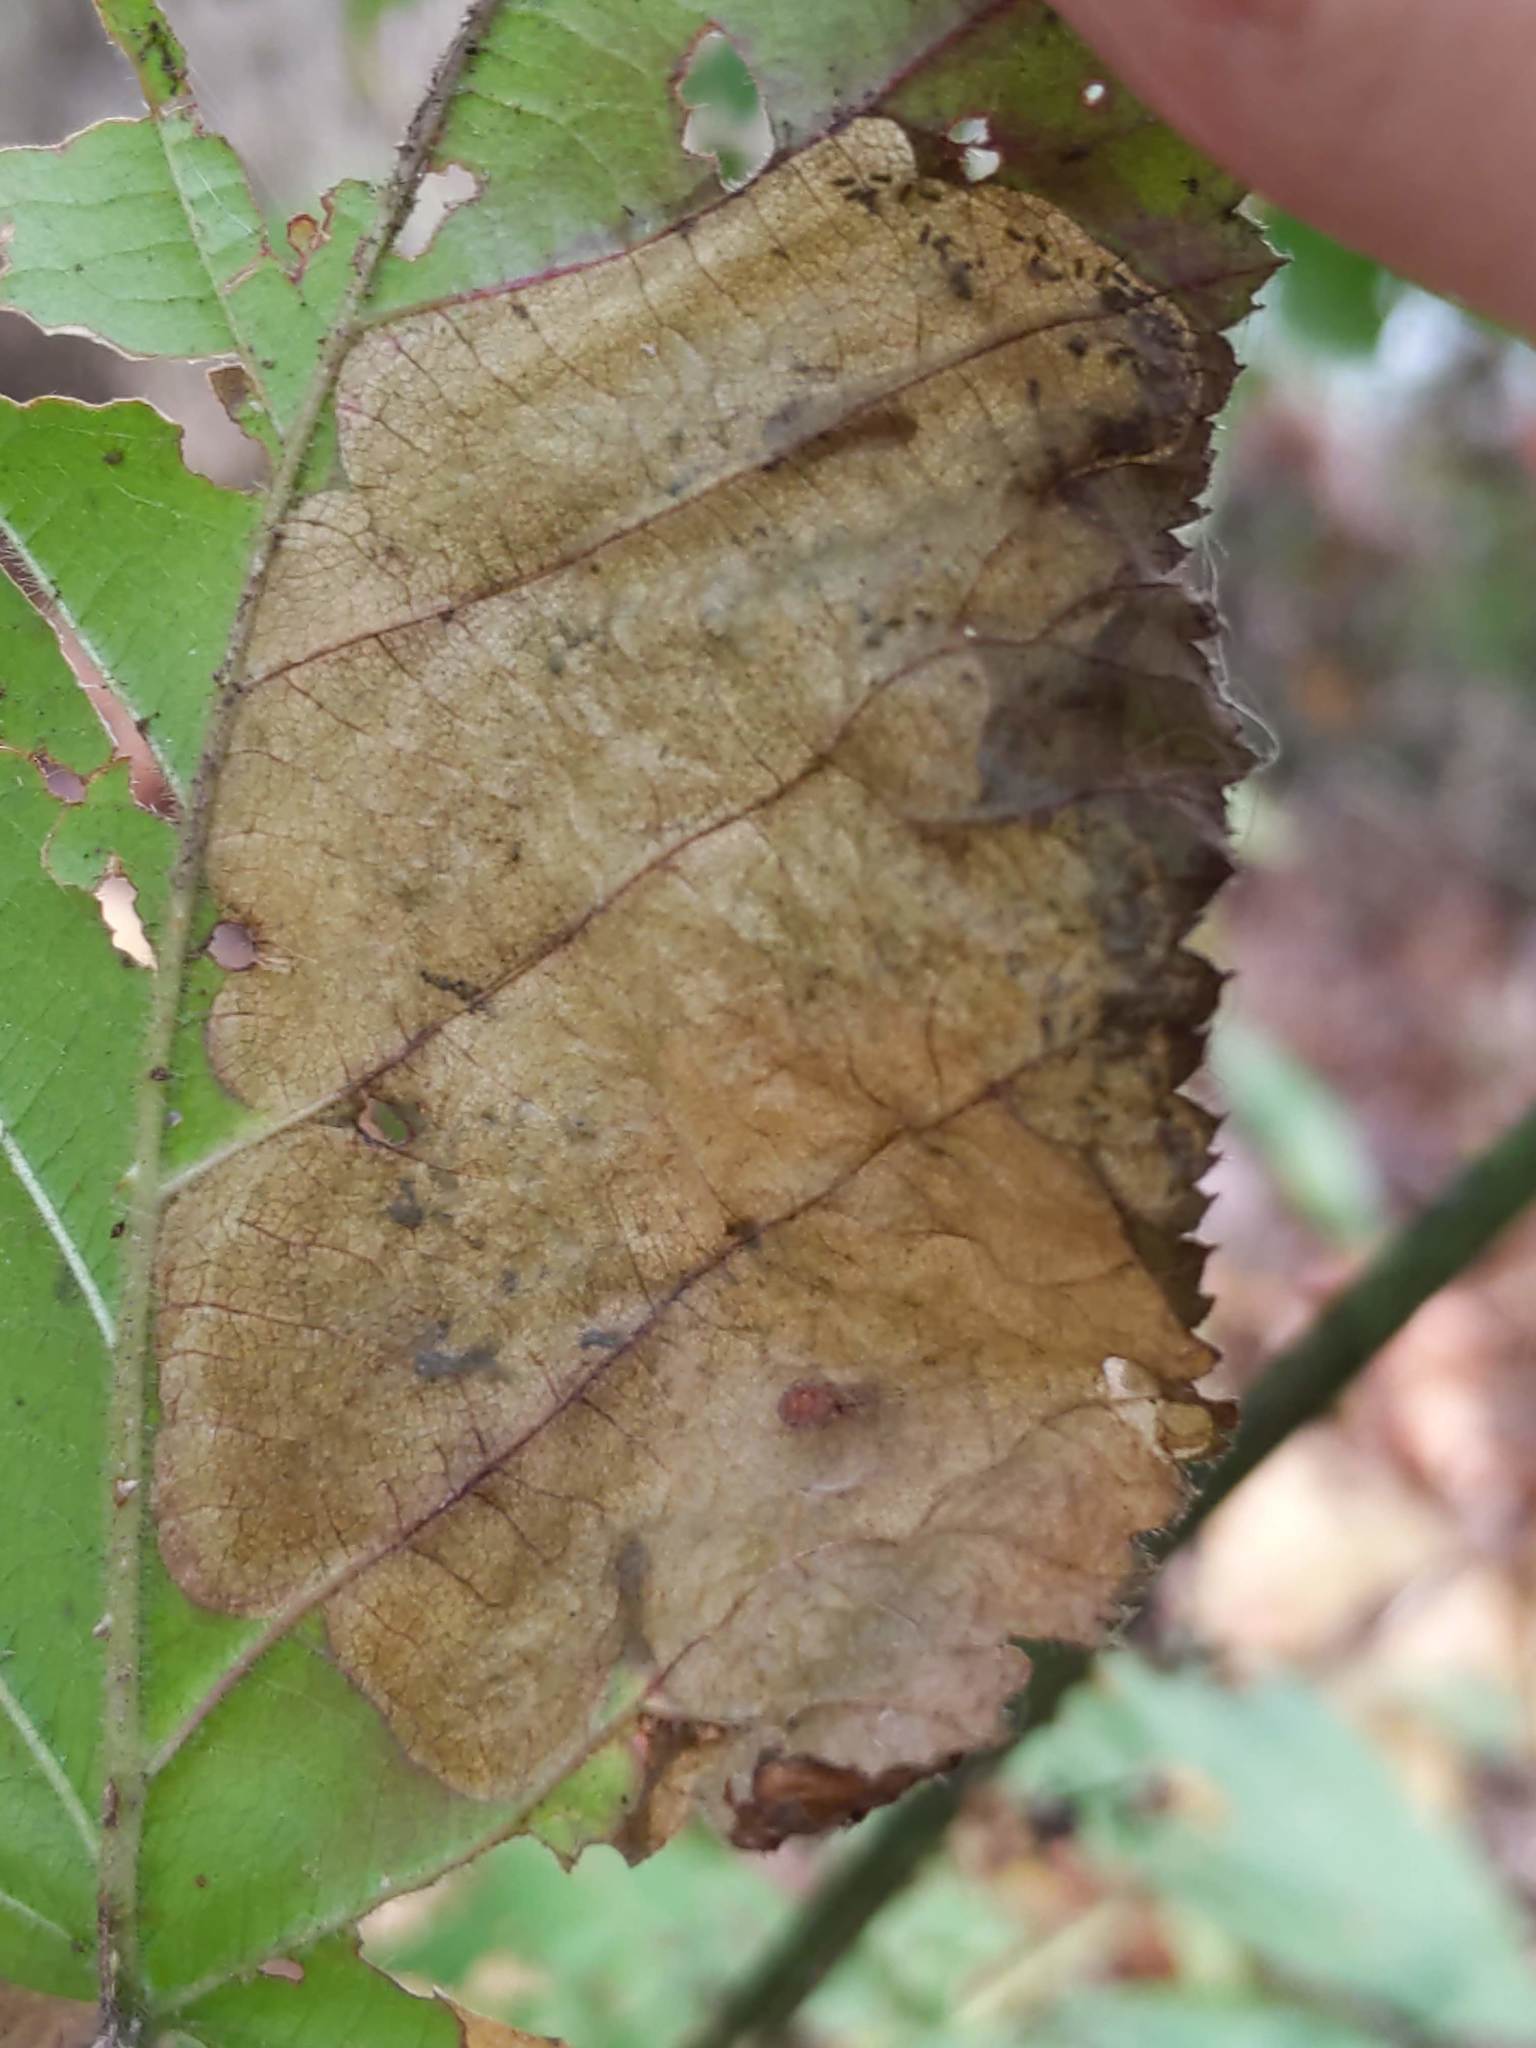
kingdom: Animalia
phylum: Arthropoda
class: Insecta
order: Hymenoptera
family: Tenthredinidae
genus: Metallus
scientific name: Metallus rohweri
